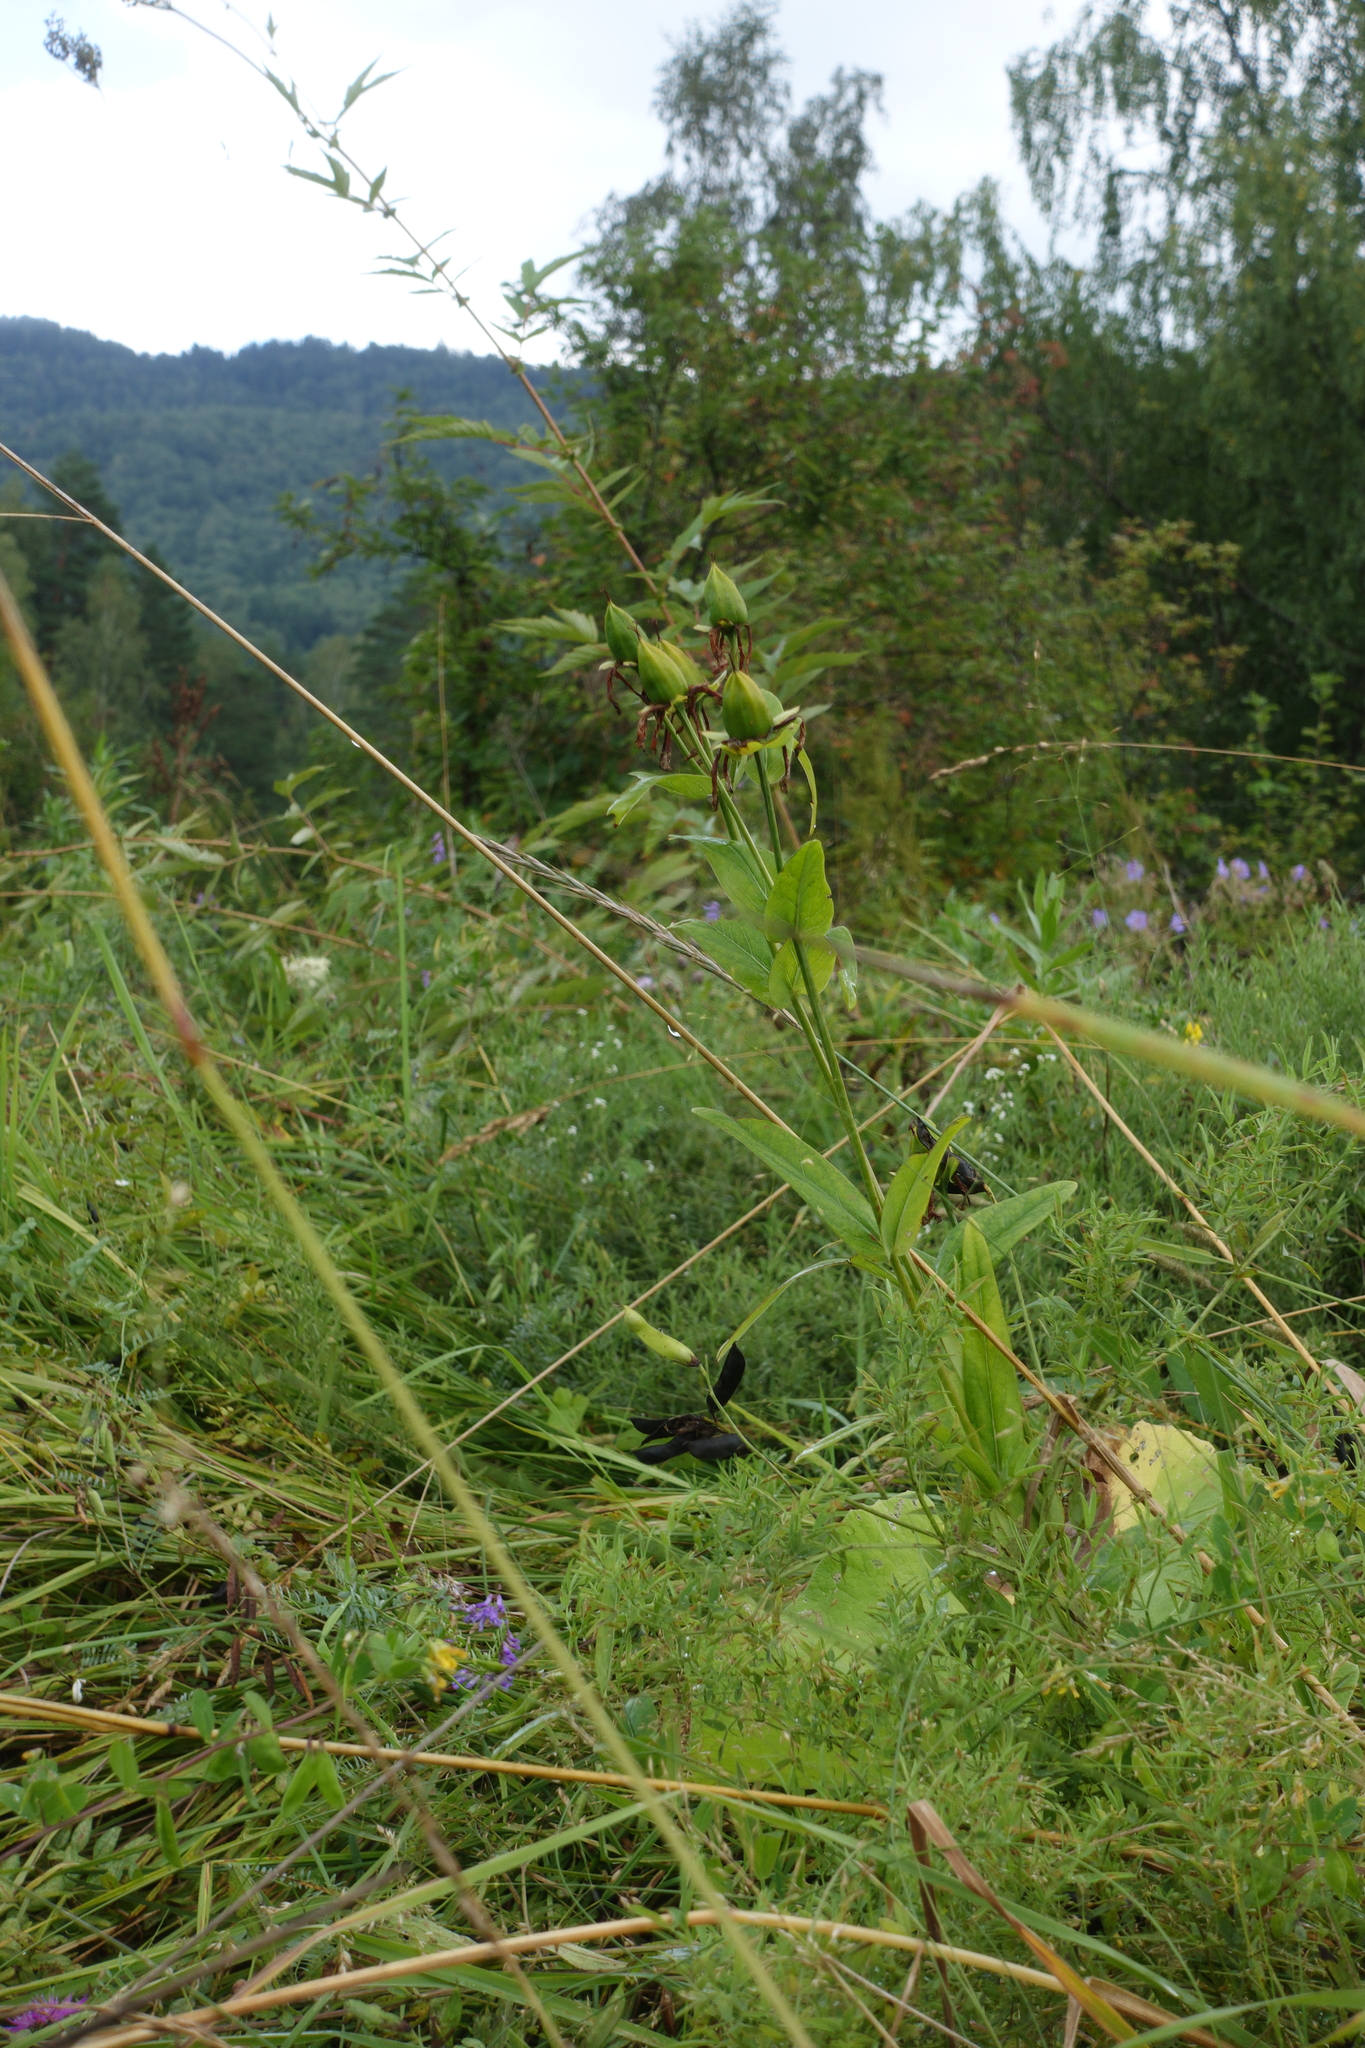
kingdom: Plantae
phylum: Tracheophyta
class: Magnoliopsida
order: Malpighiales
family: Hypericaceae
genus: Hypericum
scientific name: Hypericum ascyron
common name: Giant st. john's-wort
